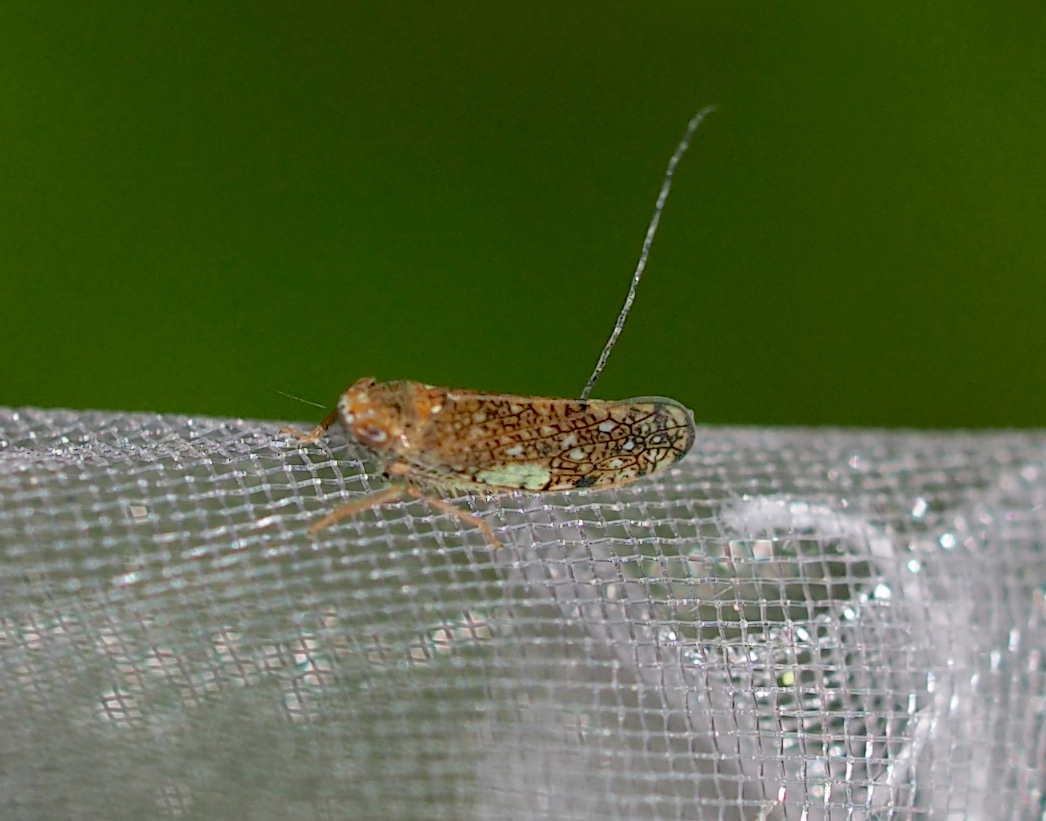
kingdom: Animalia
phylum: Arthropoda
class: Insecta
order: Hemiptera
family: Cicadellidae
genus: Orientus
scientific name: Orientus ishidae
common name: Japanese leafhopper
